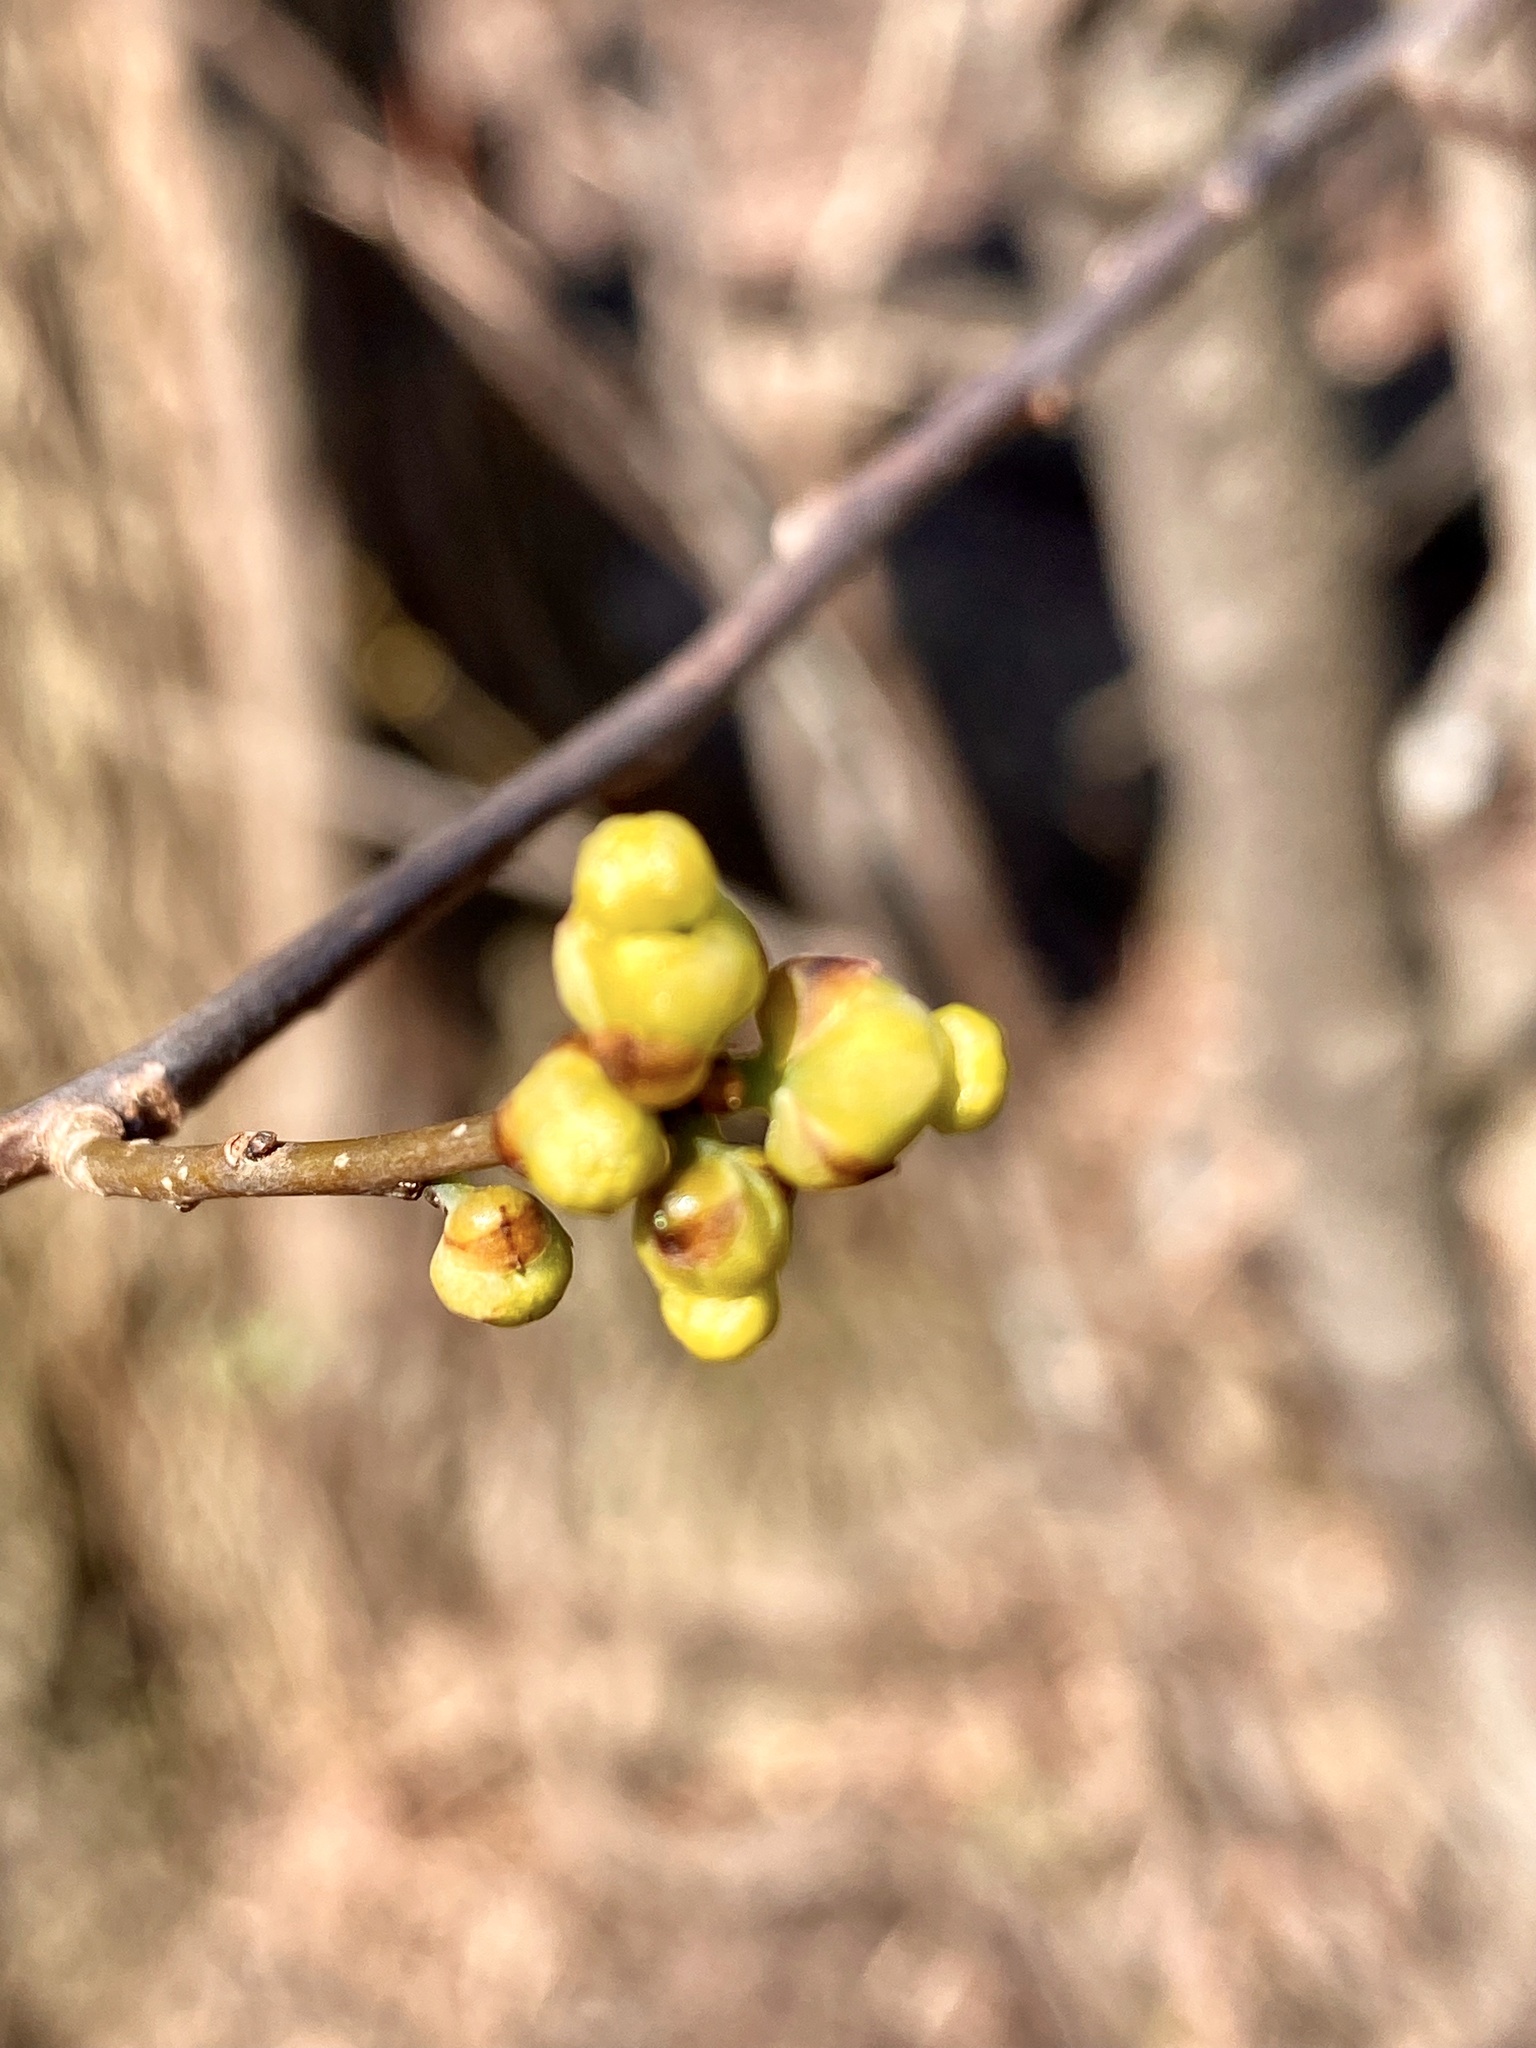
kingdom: Plantae
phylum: Tracheophyta
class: Magnoliopsida
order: Laurales
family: Lauraceae
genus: Lindera
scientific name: Lindera benzoin
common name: Spicebush
